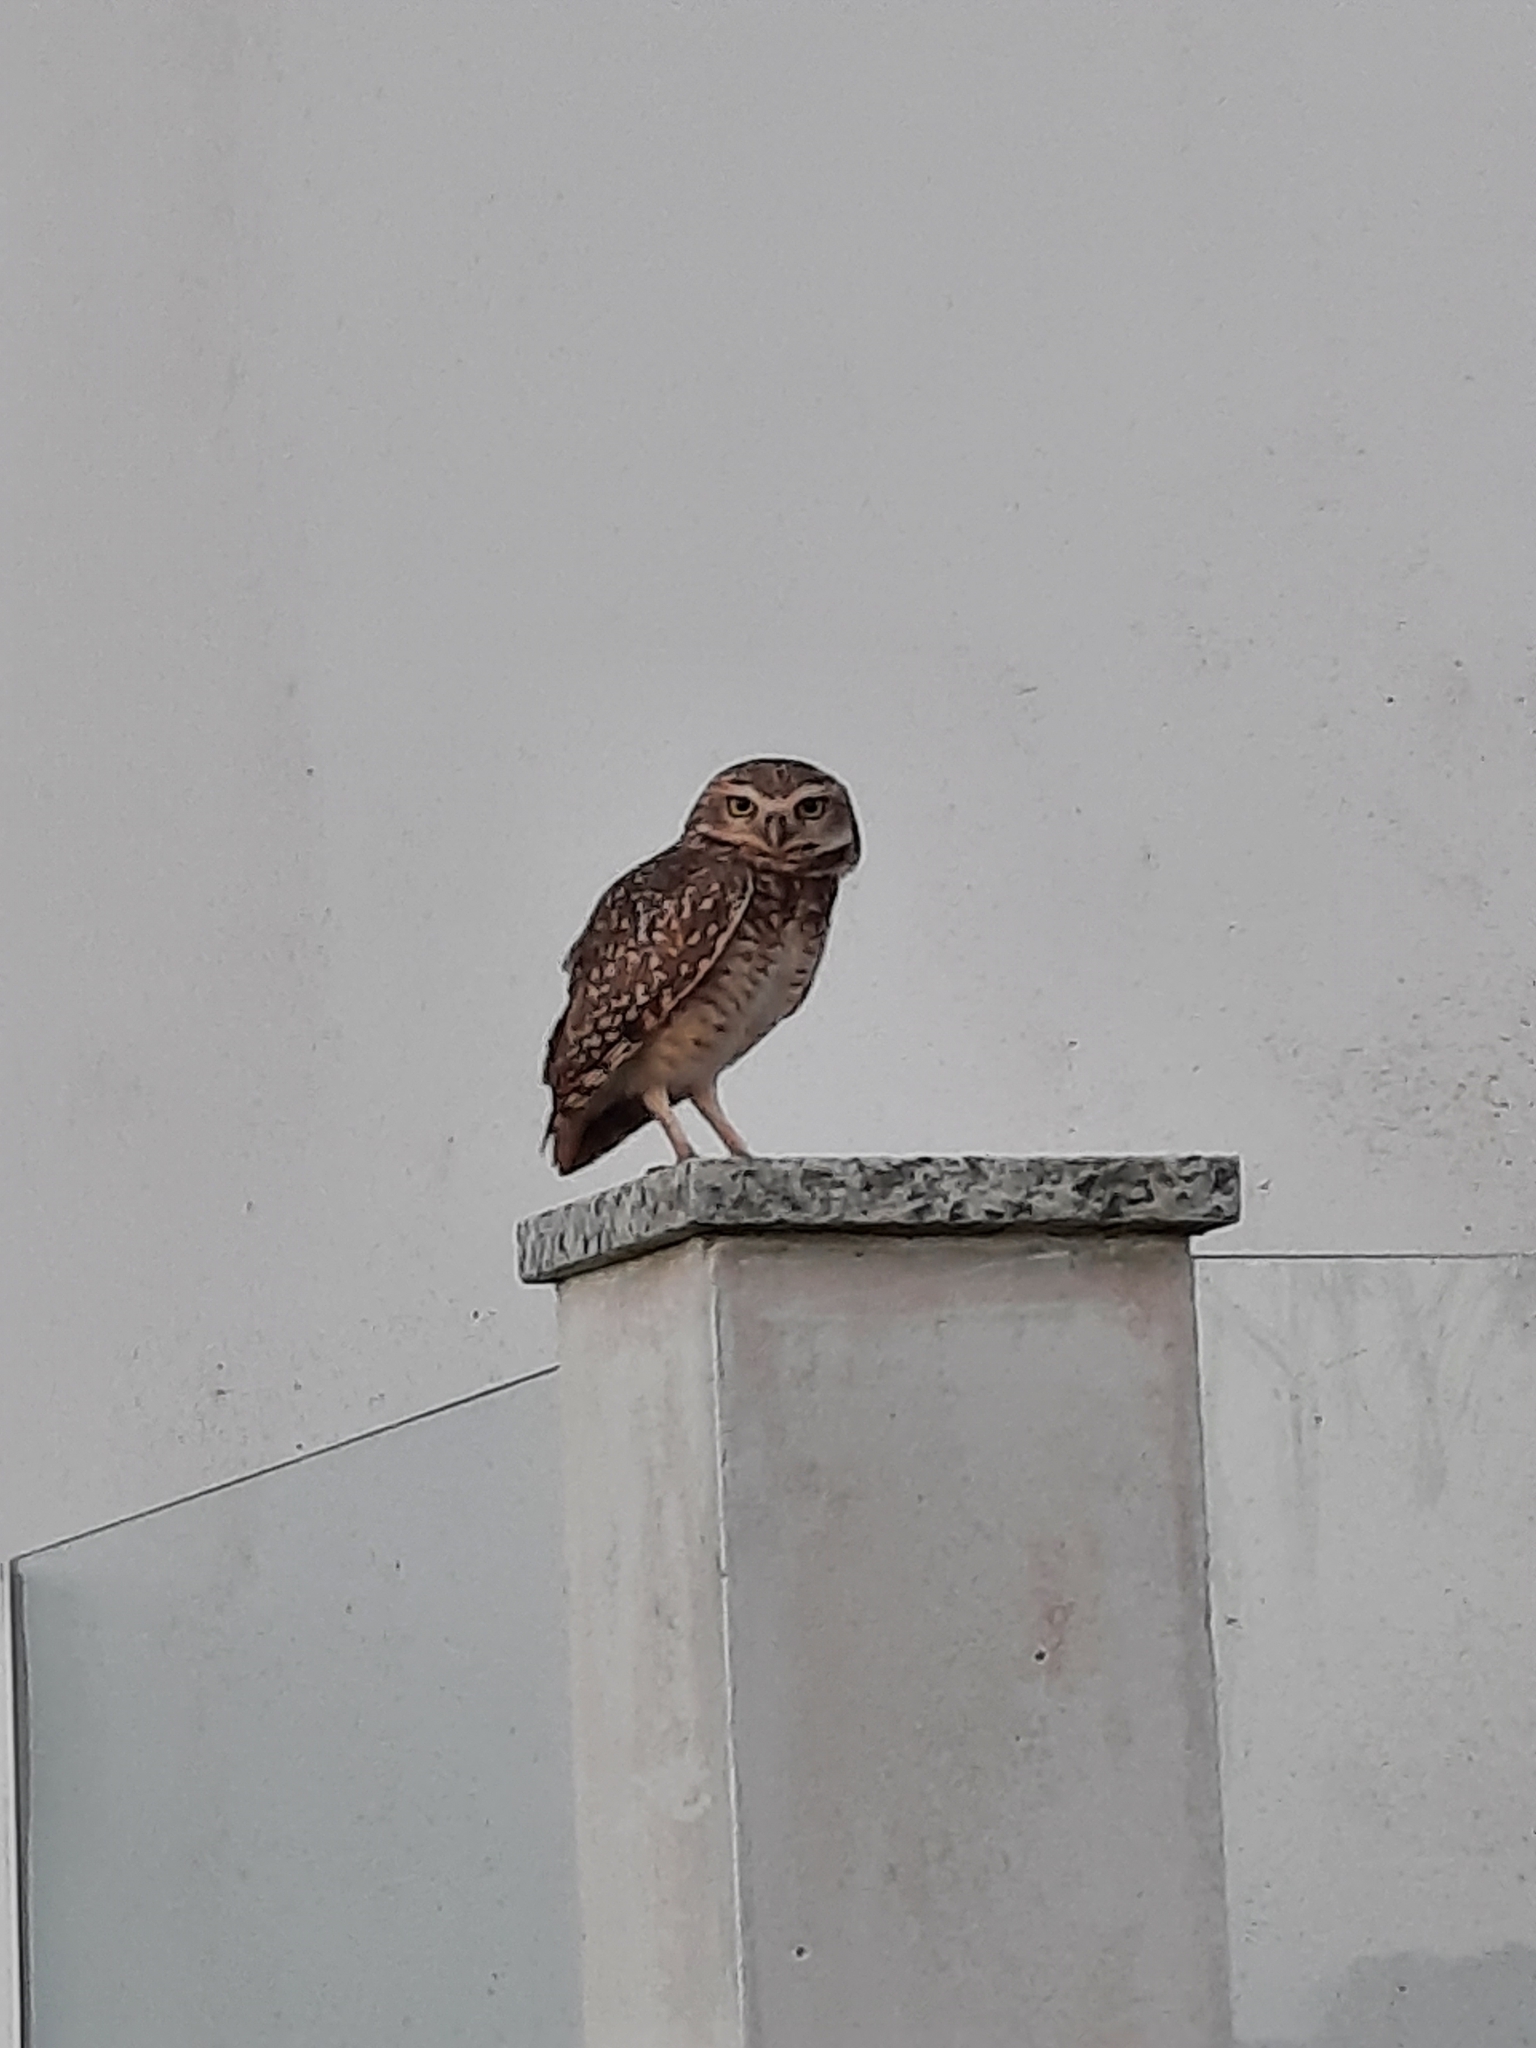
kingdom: Animalia
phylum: Chordata
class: Aves
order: Strigiformes
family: Strigidae
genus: Athene
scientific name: Athene cunicularia
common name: Burrowing owl
